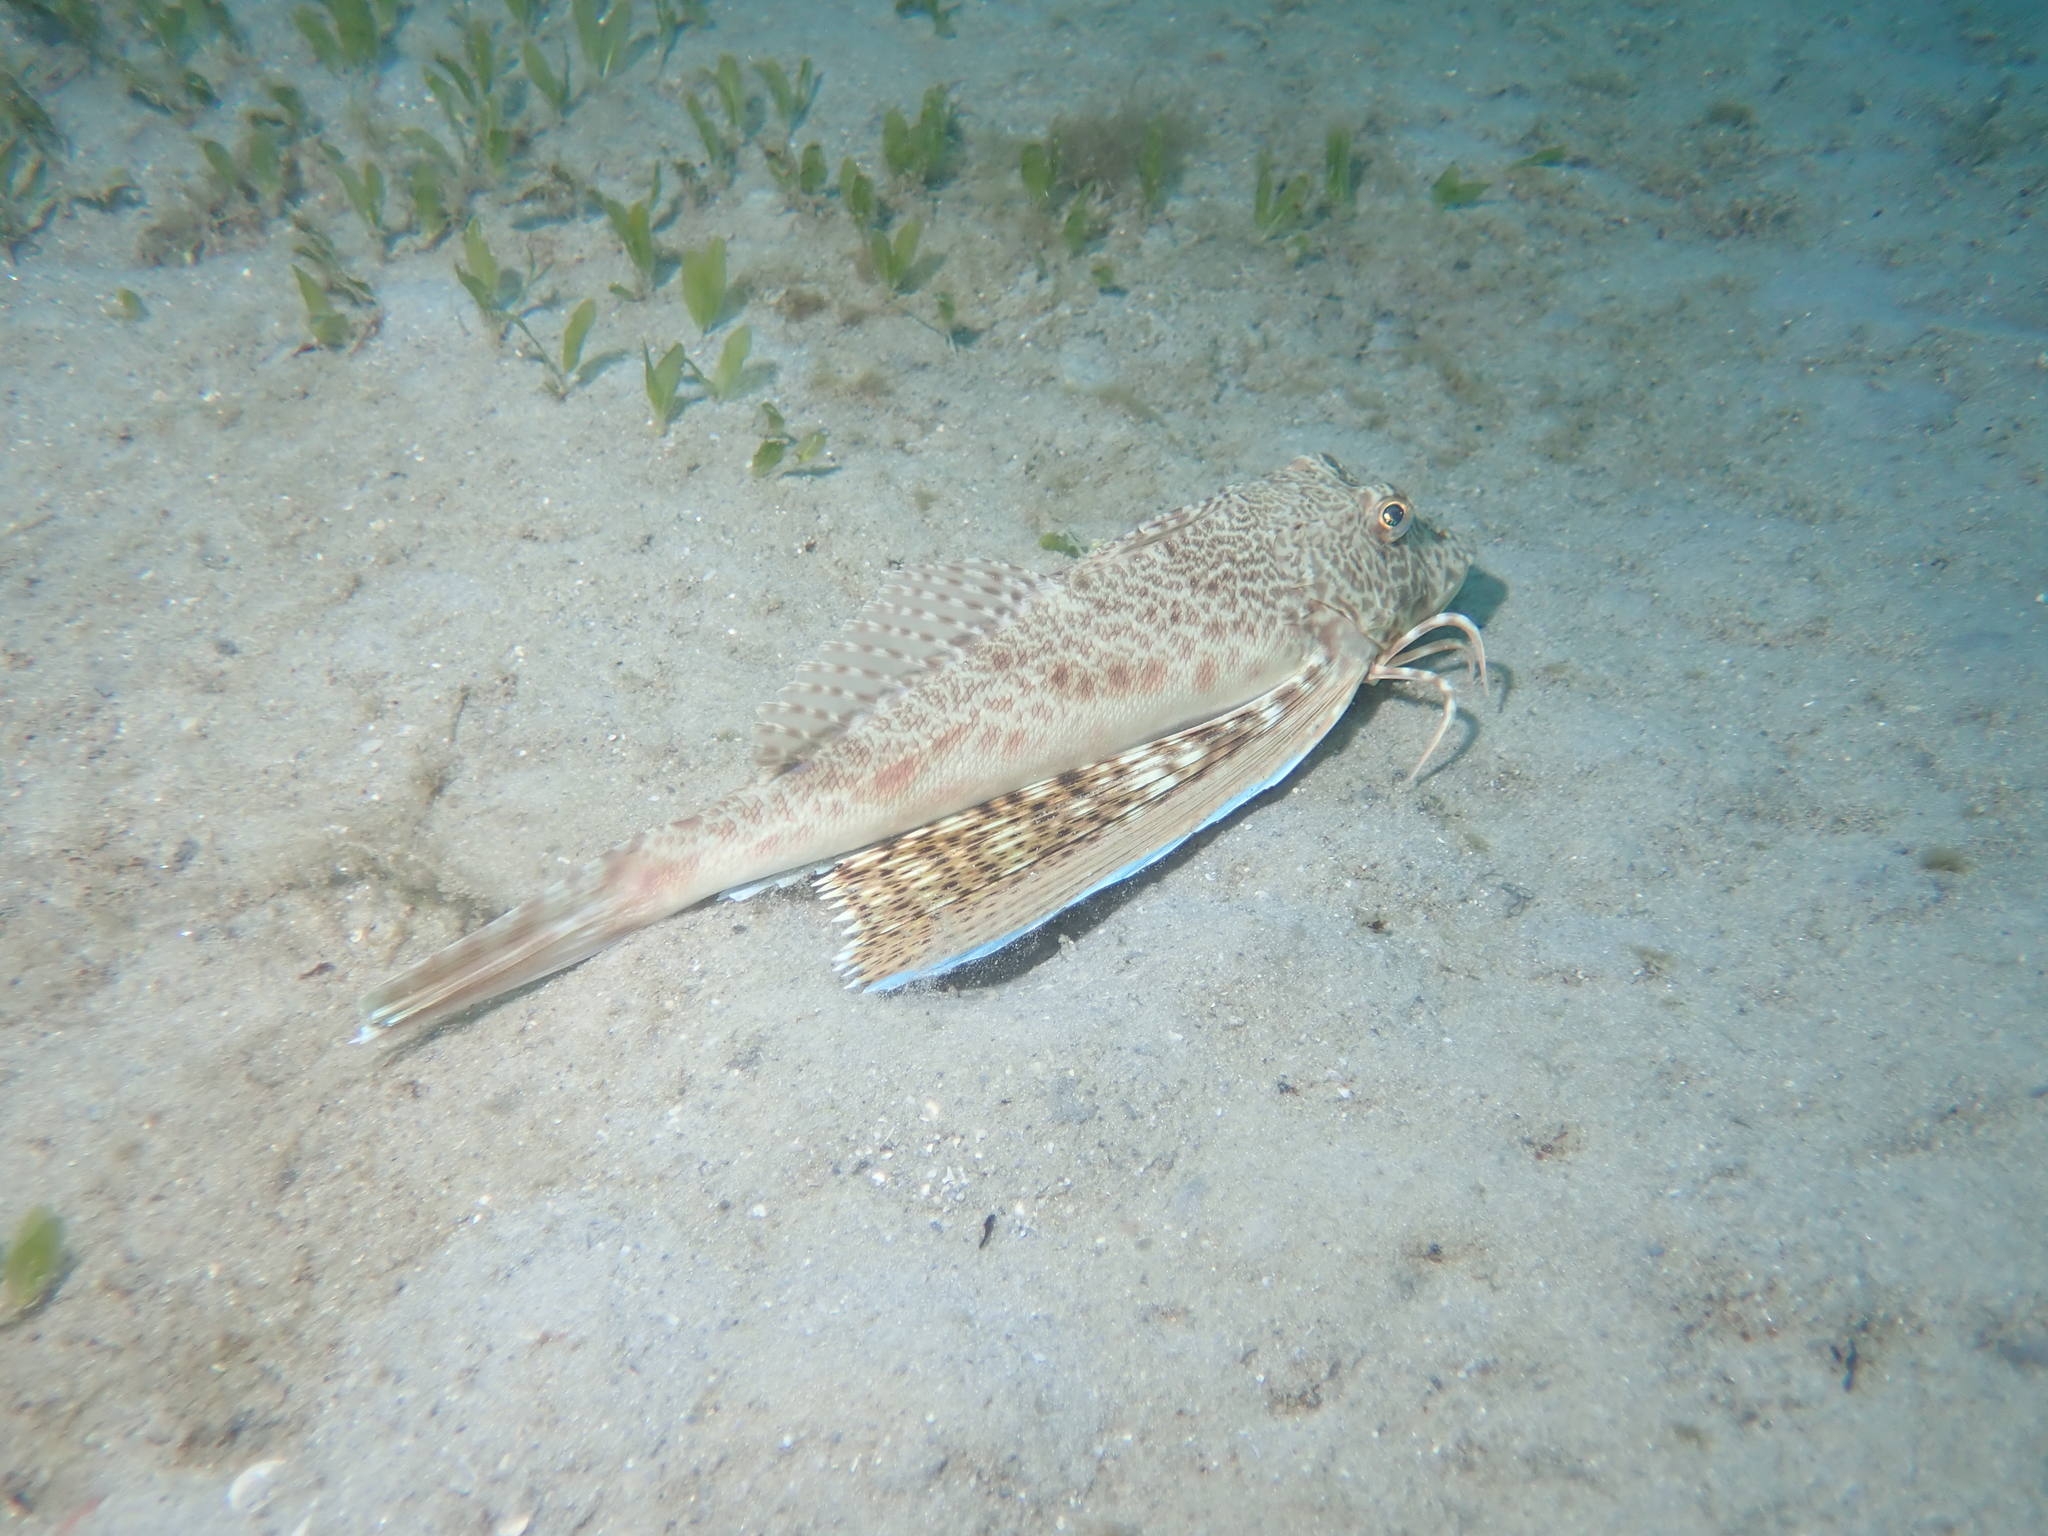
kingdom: Animalia
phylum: Chordata
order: Scorpaeniformes
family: Triglidae
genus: Prionotus
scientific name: Prionotus punctatus
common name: Bluewing searobin
